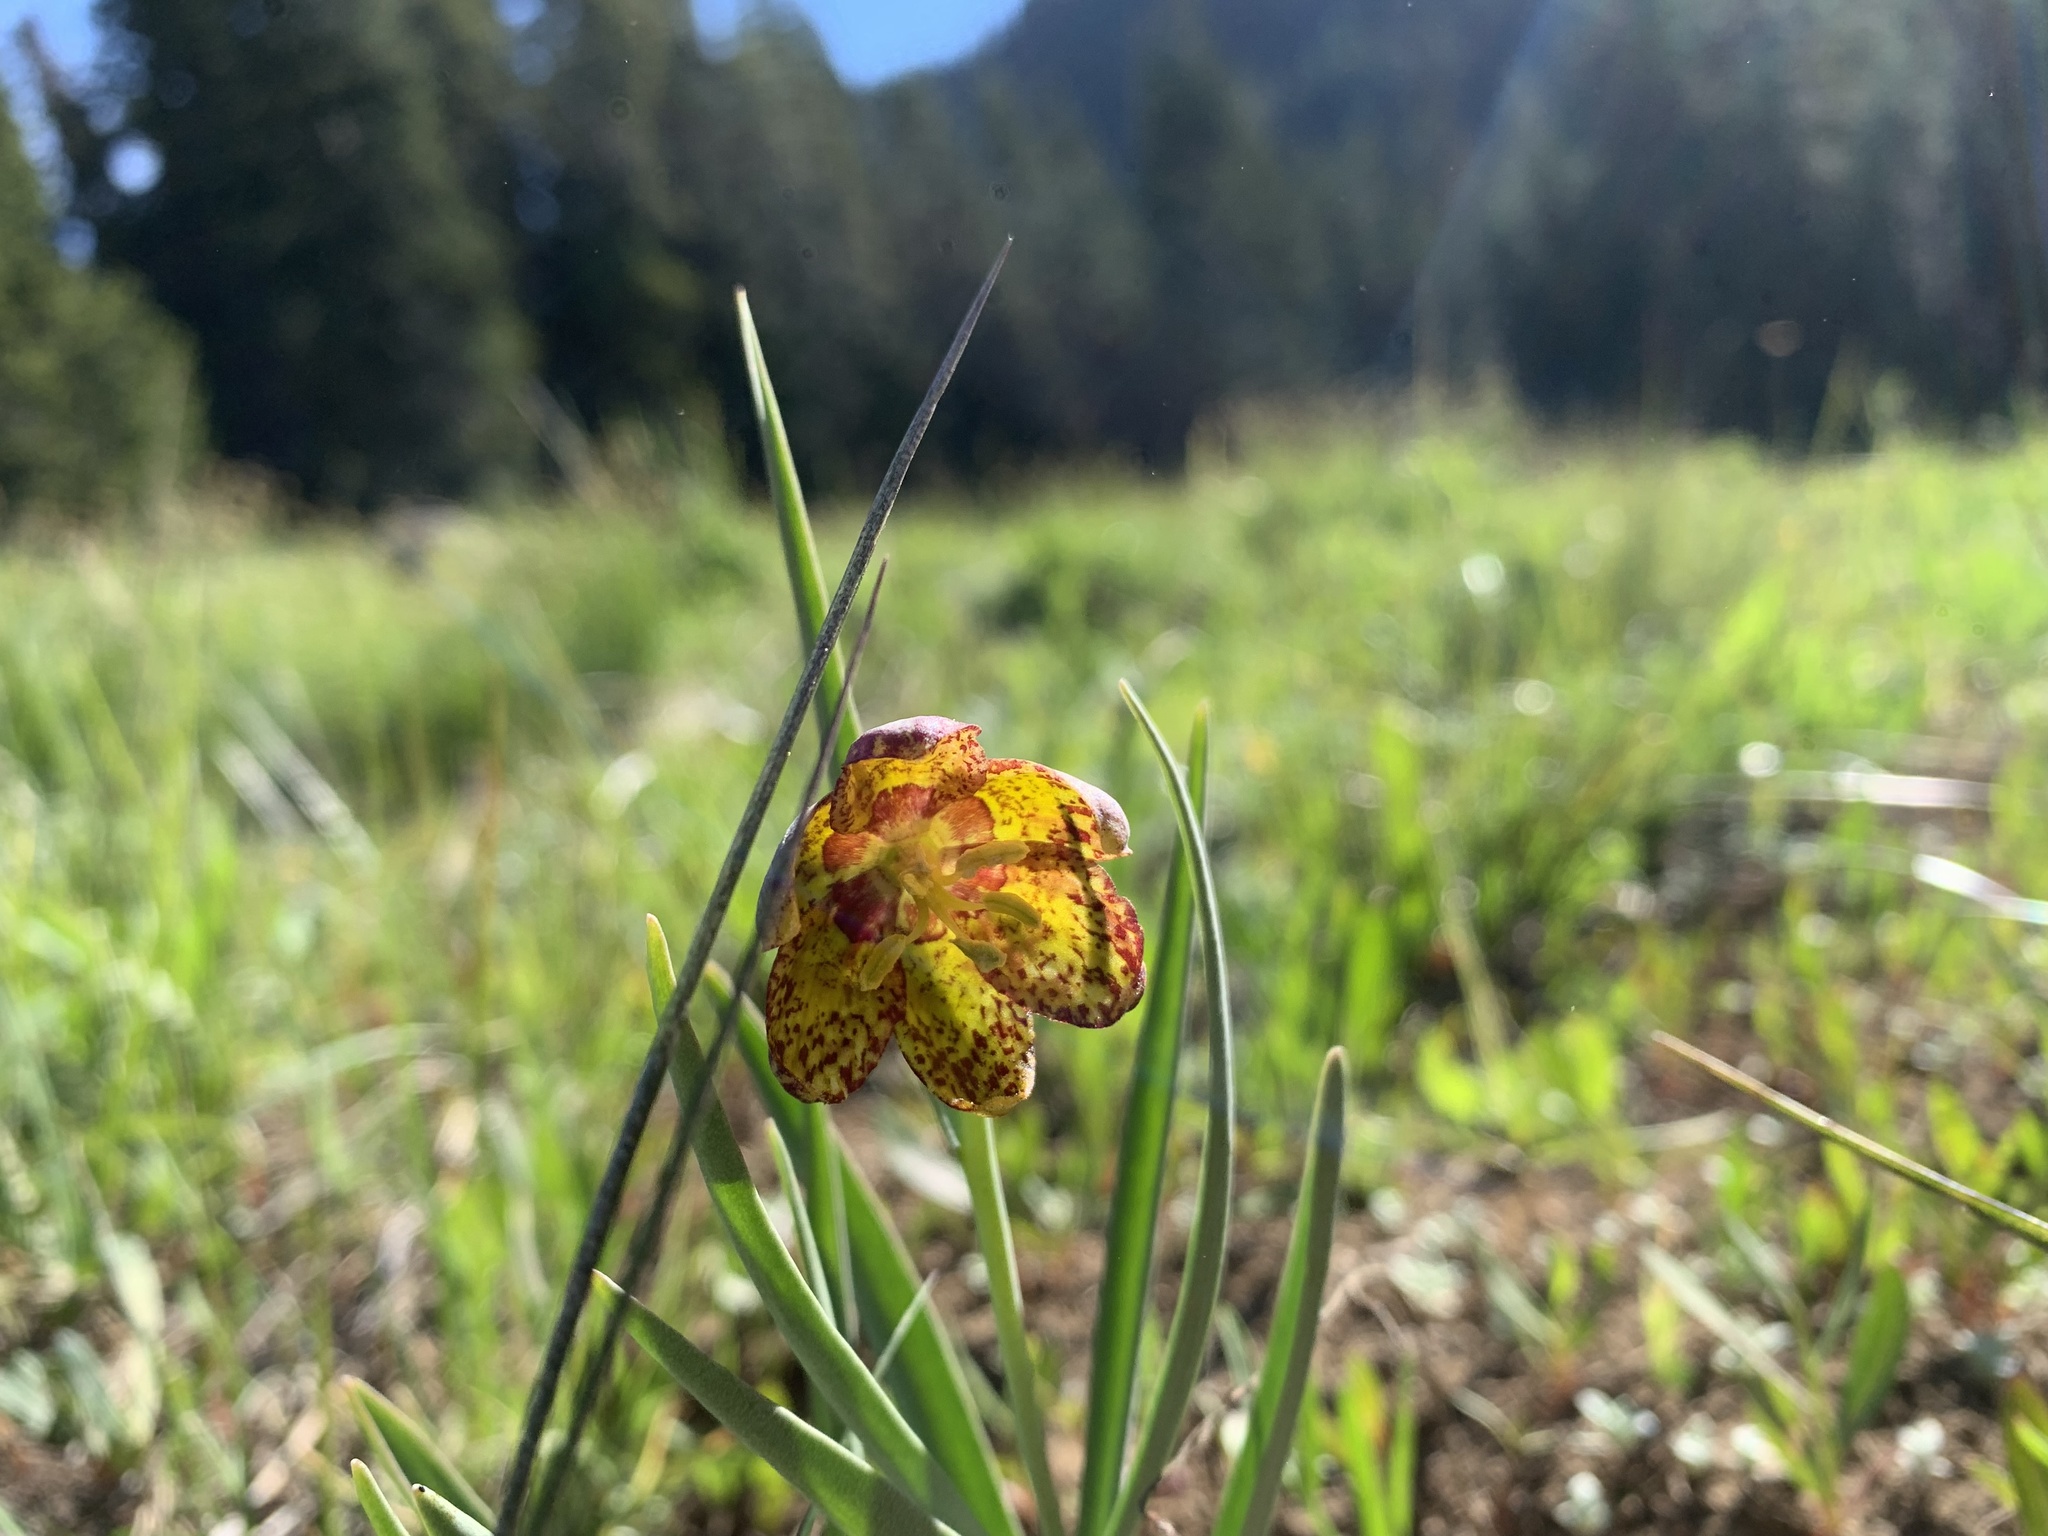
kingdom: Plantae
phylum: Tracheophyta
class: Liliopsida
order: Liliales
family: Liliaceae
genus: Fritillaria
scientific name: Fritillaria atropurpurea
